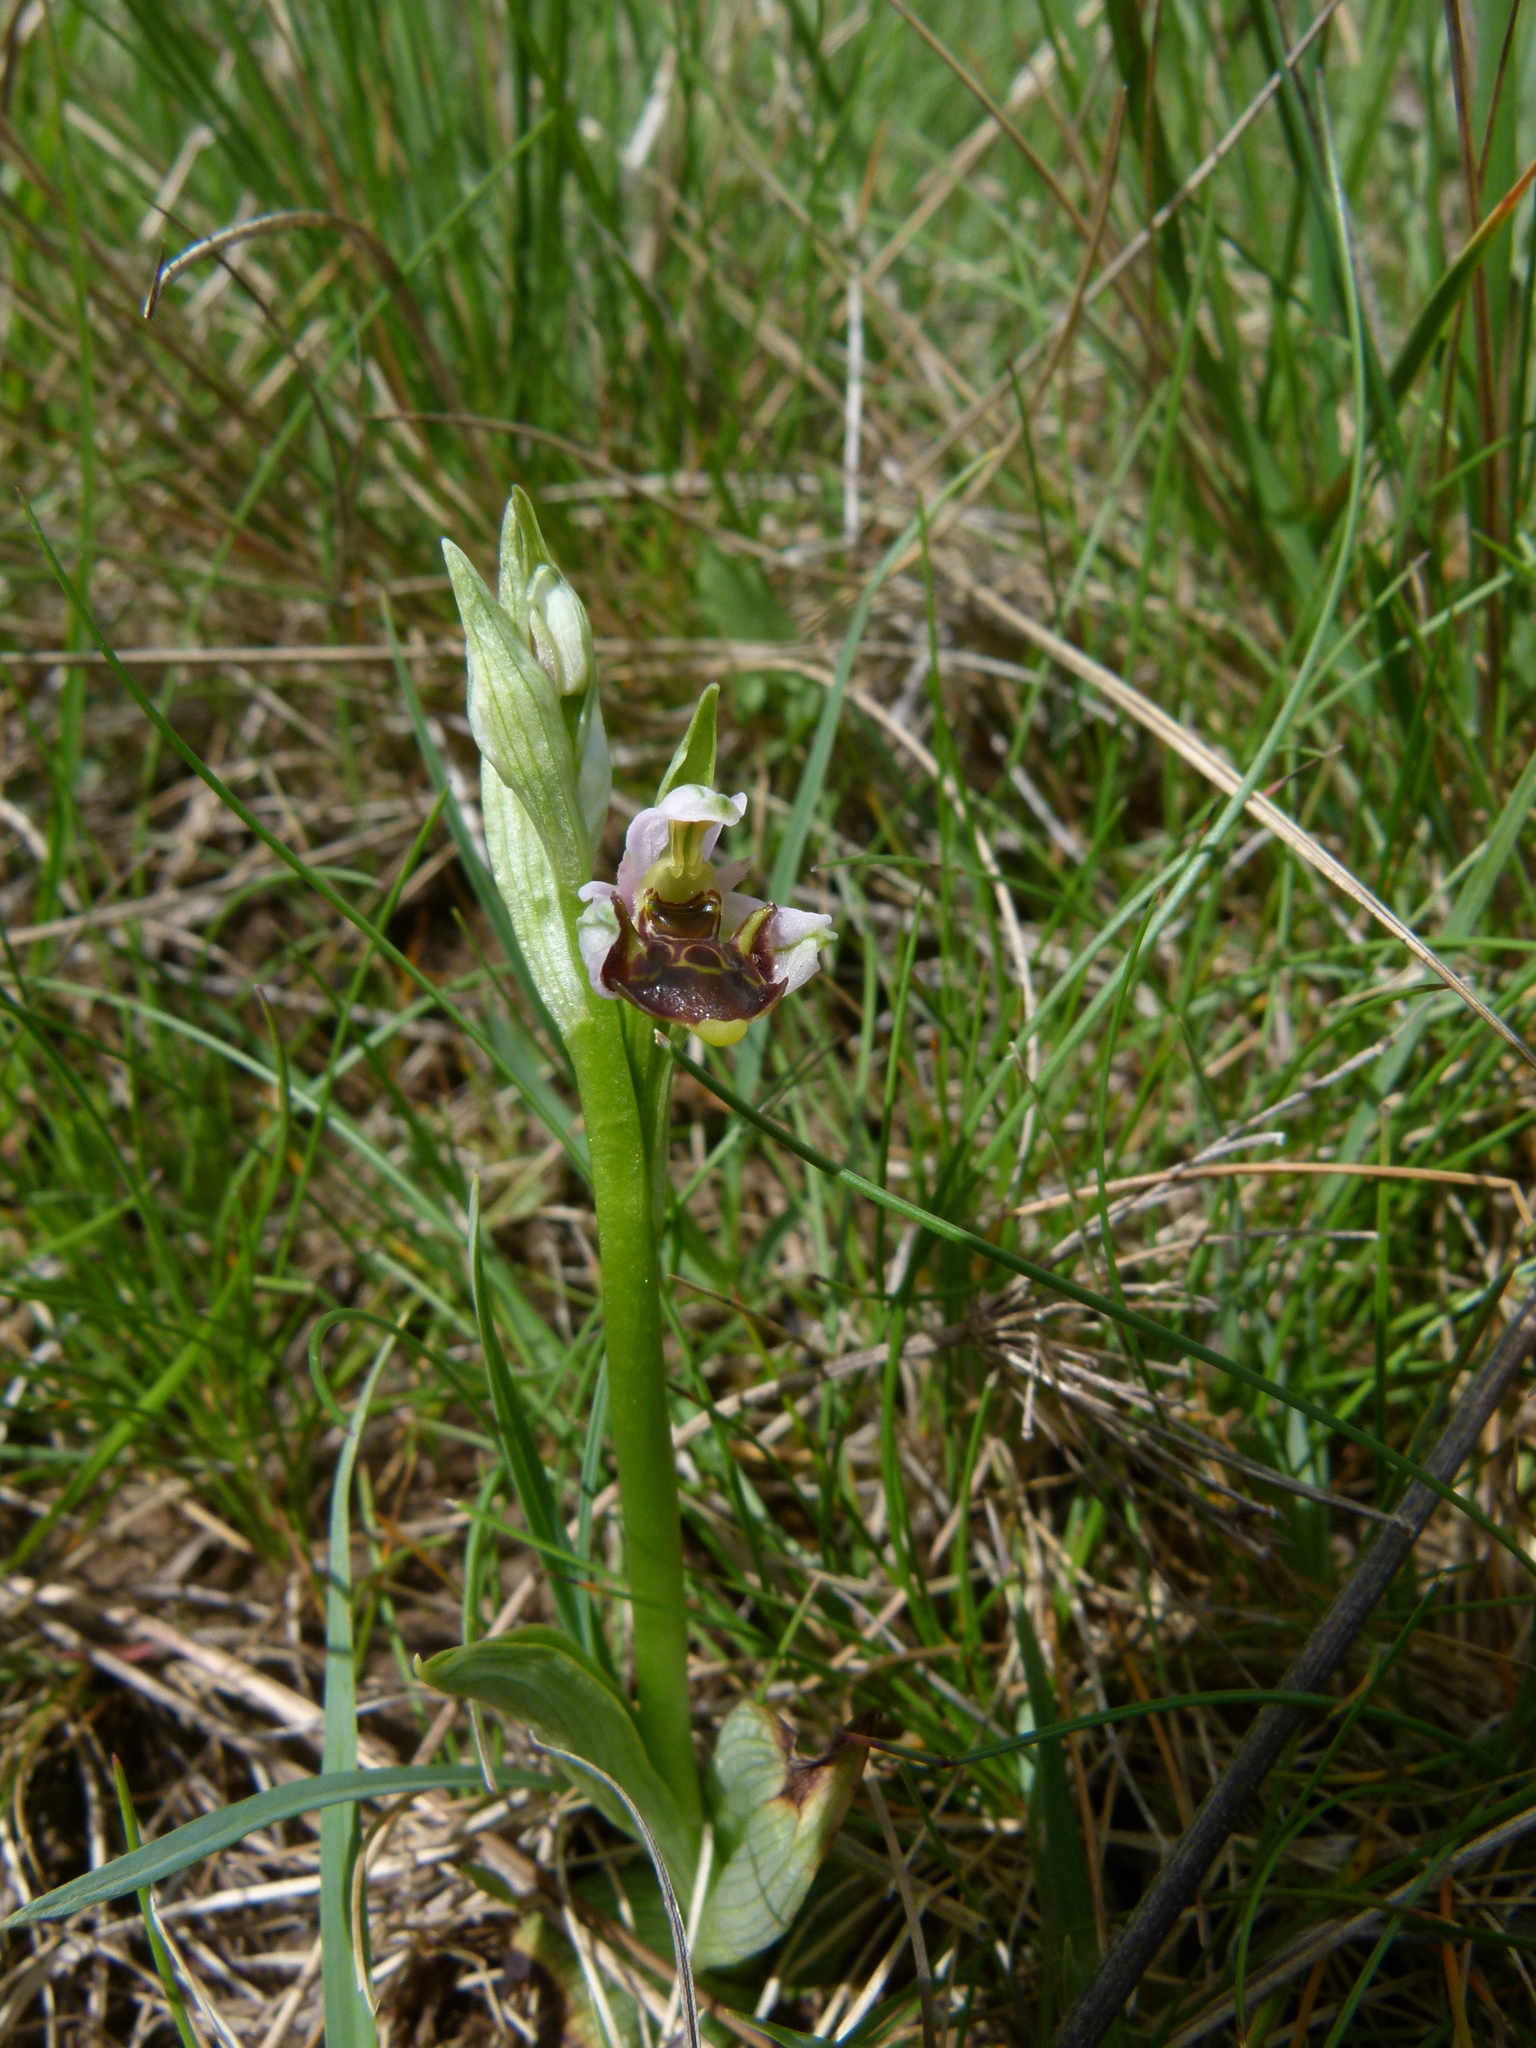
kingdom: Plantae
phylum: Tracheophyta
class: Liliopsida
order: Asparagales
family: Orchidaceae
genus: Ophrys
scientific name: Ophrys scolopax
